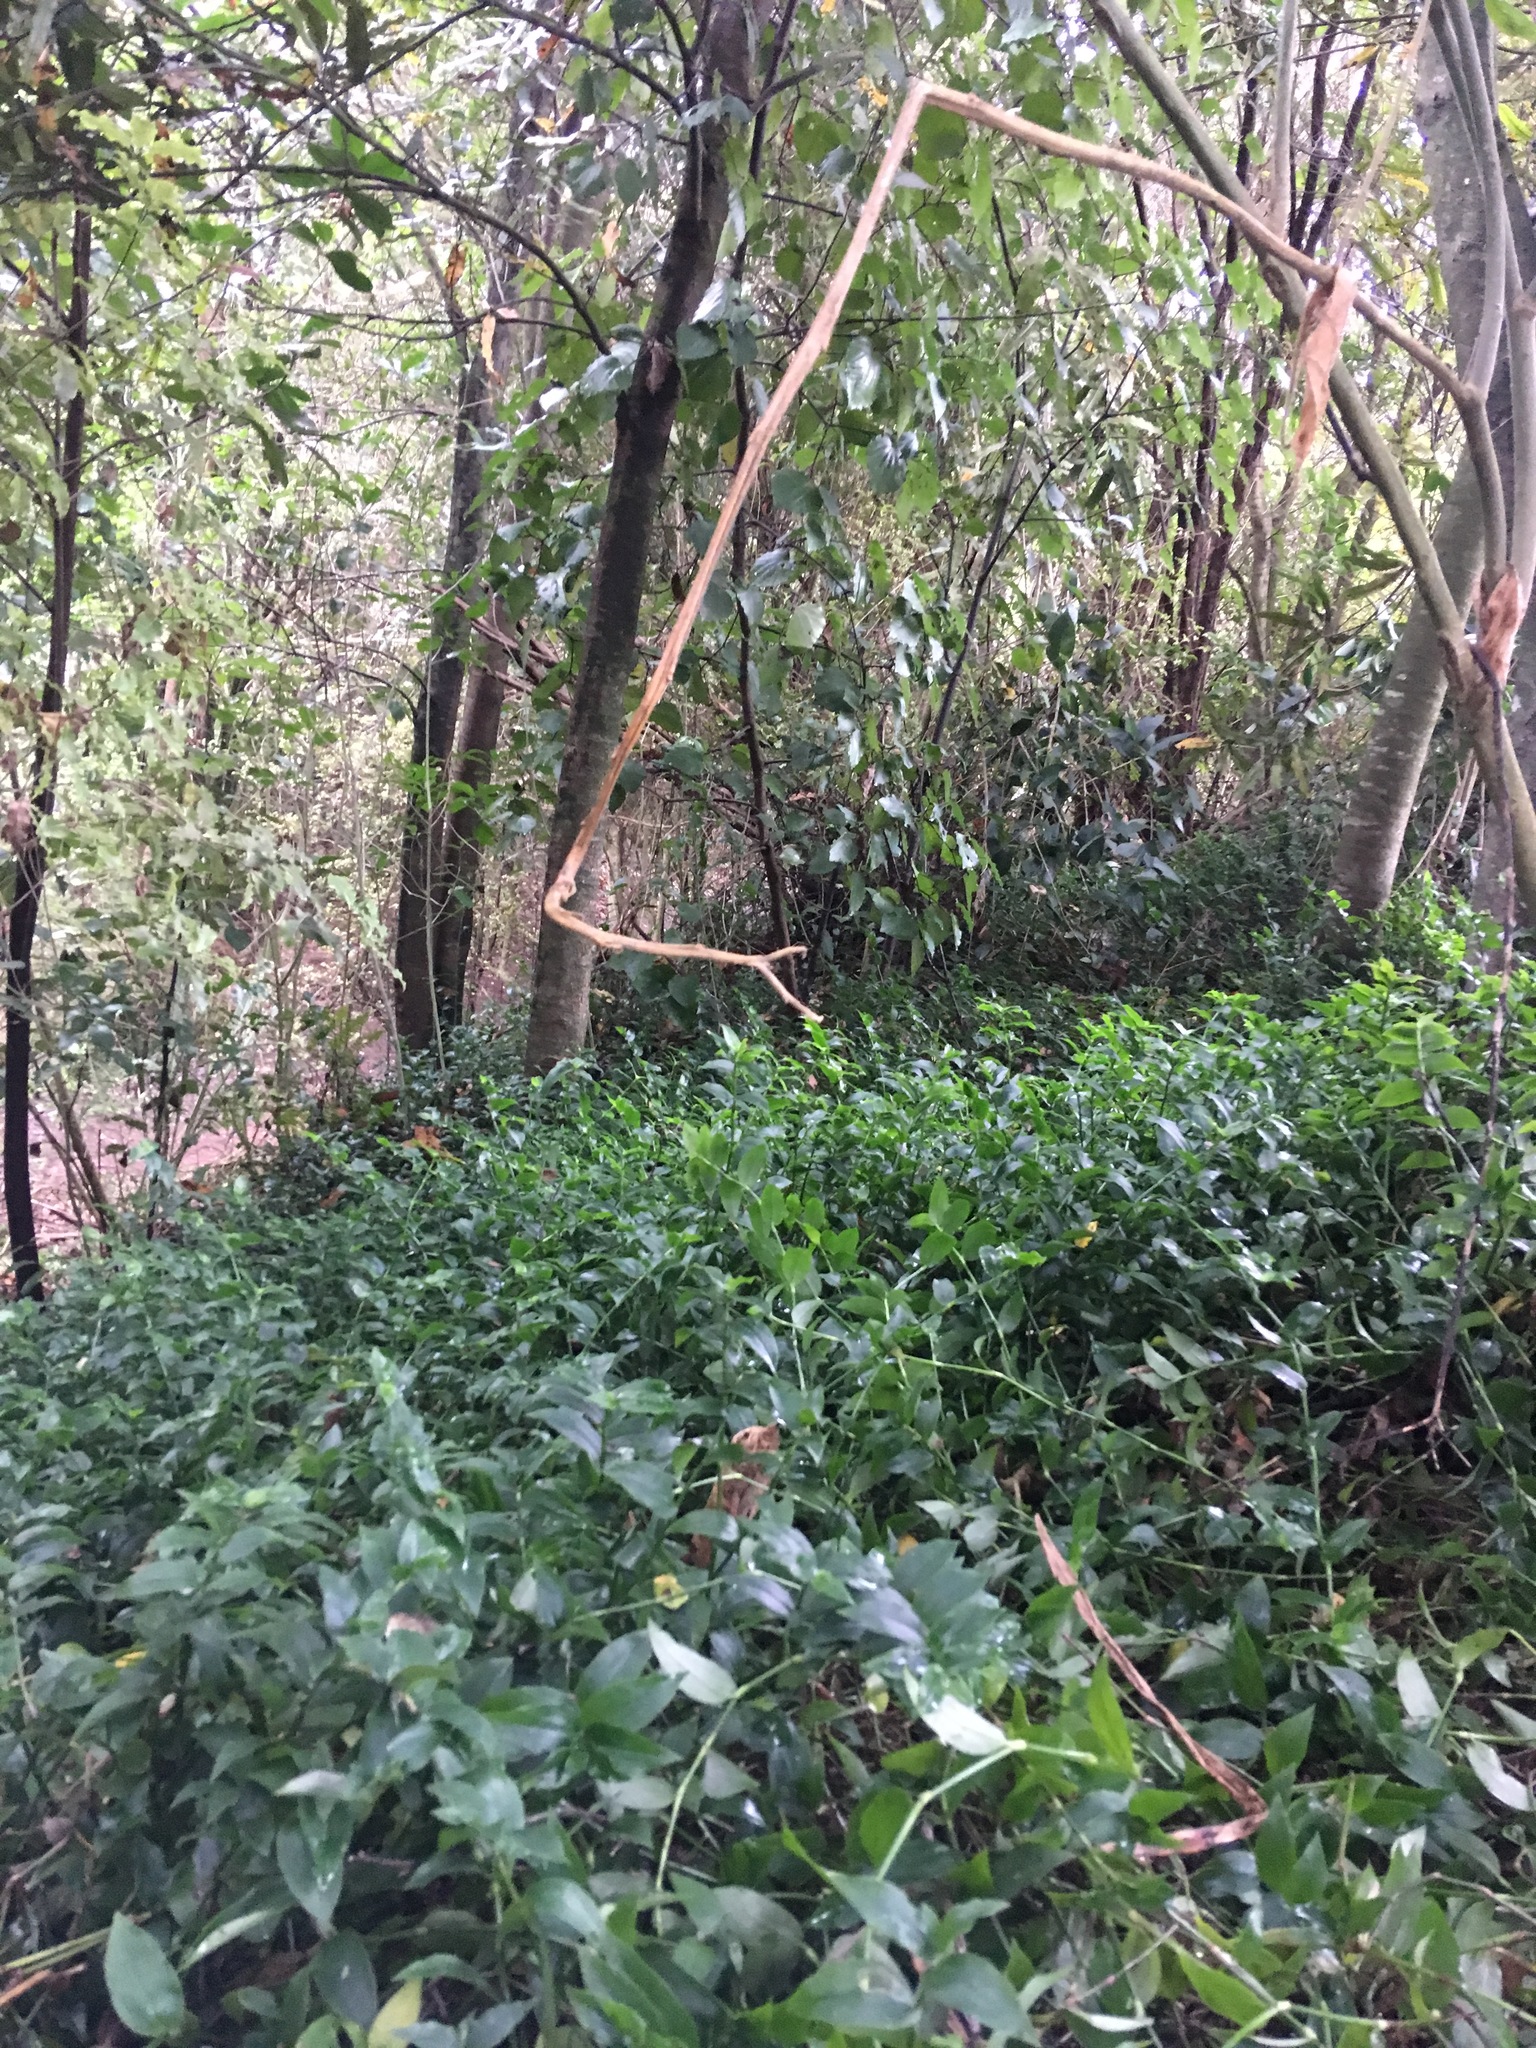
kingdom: Plantae
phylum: Tracheophyta
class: Liliopsida
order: Commelinales
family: Commelinaceae
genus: Tradescantia
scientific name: Tradescantia fluminensis
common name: Wandering-jew
